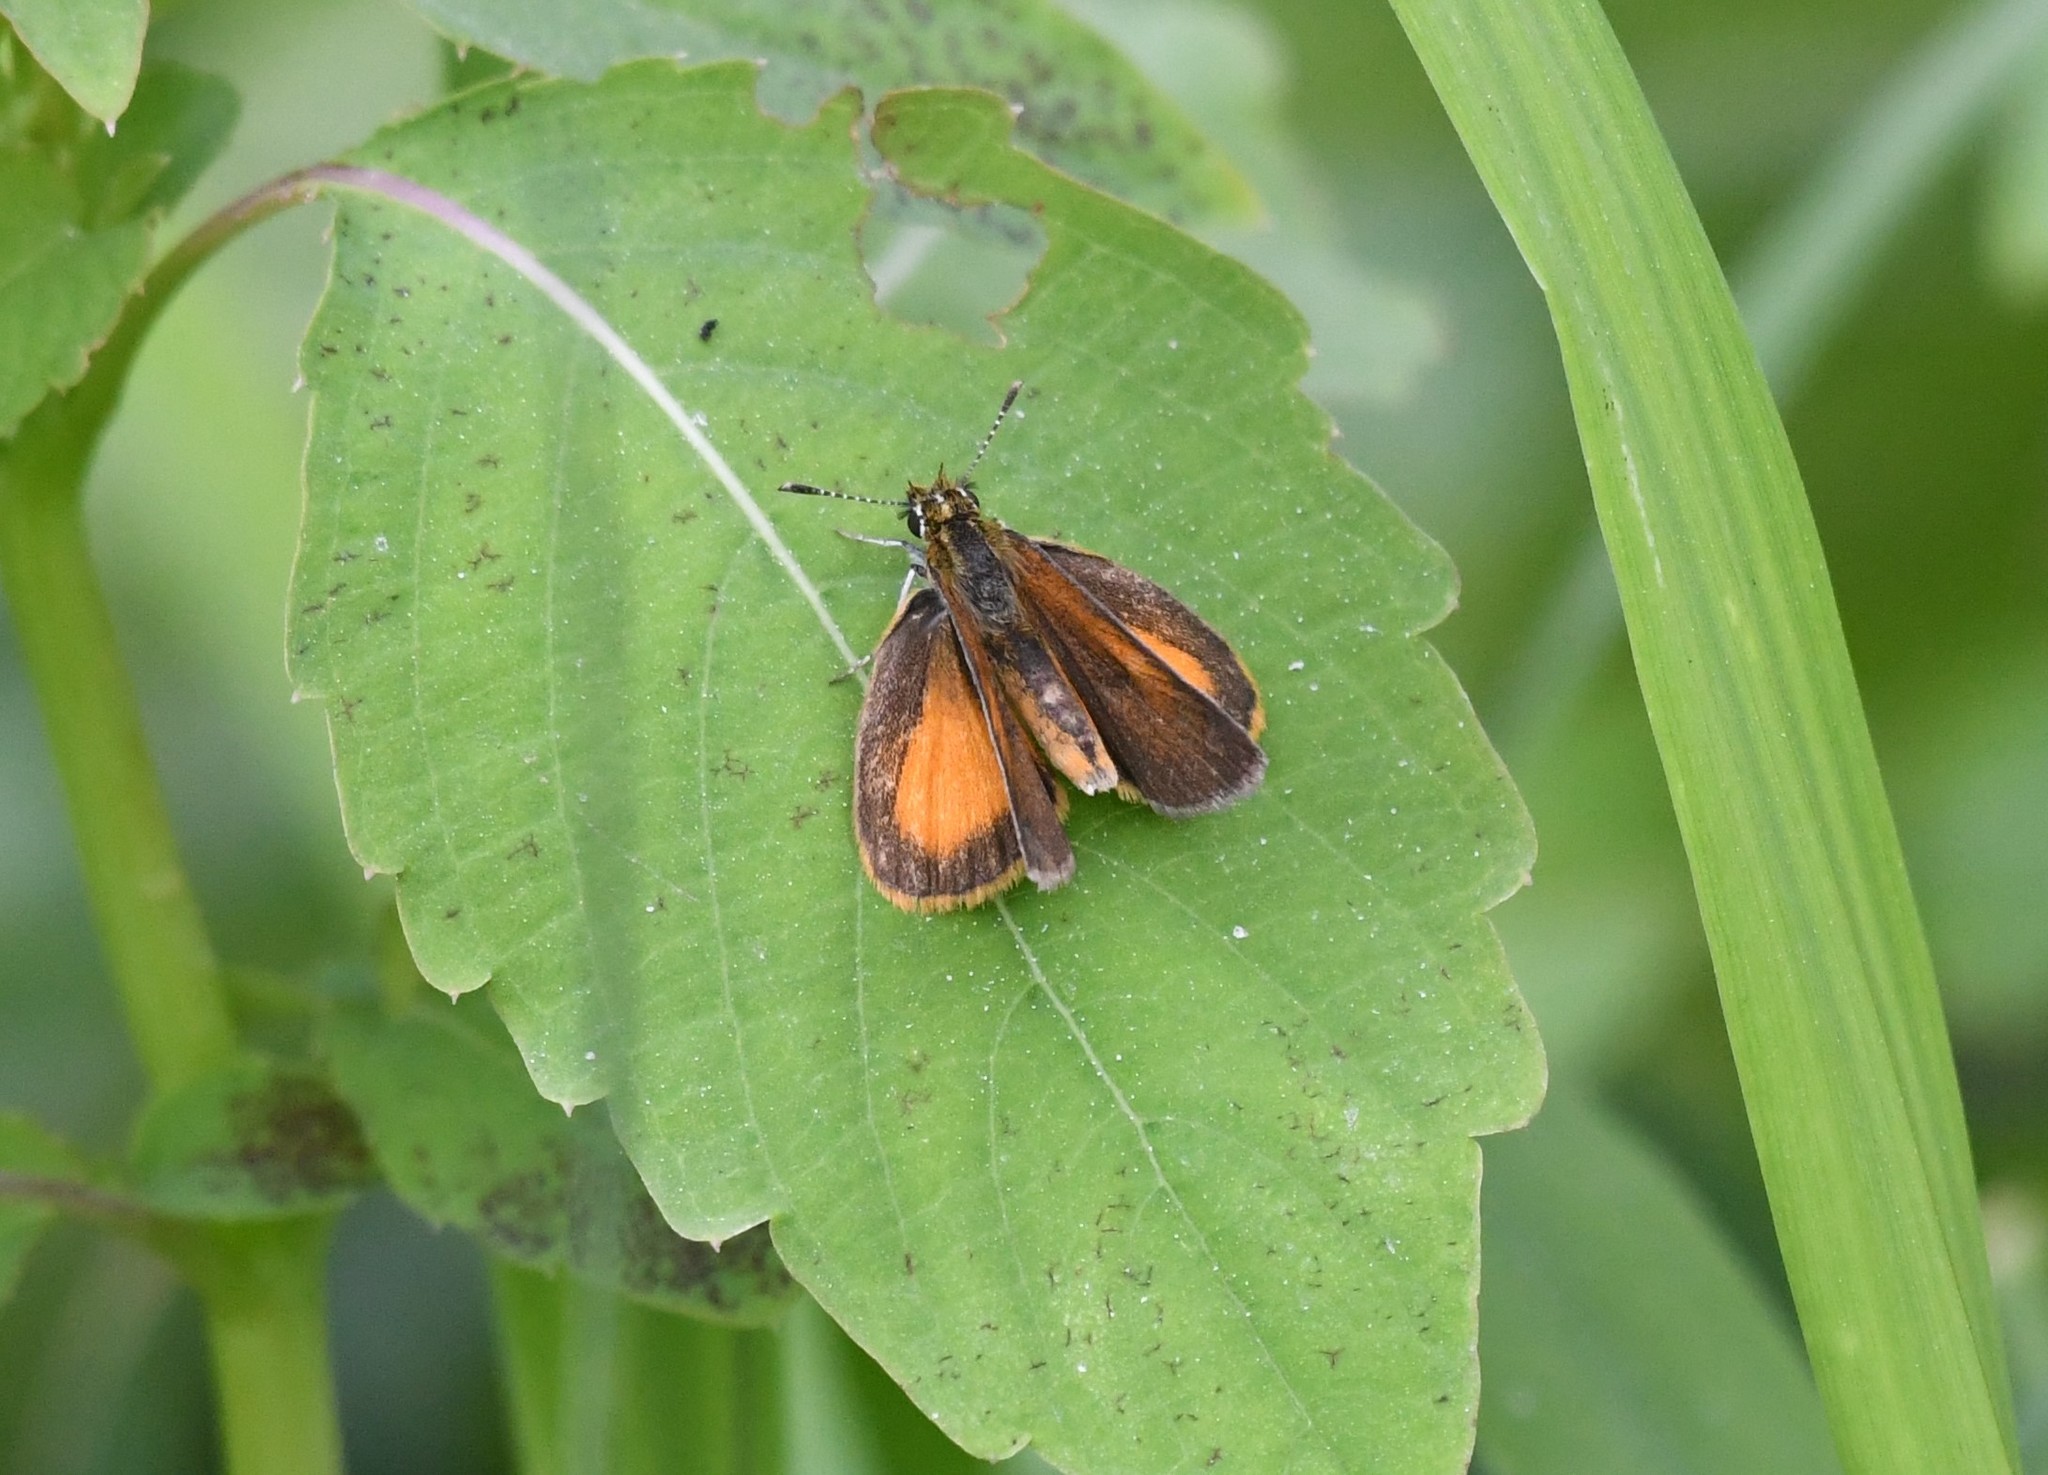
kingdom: Animalia
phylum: Arthropoda
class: Insecta
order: Lepidoptera
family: Hesperiidae
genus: Ancyloxypha
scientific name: Ancyloxypha numitor
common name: Least skipper
